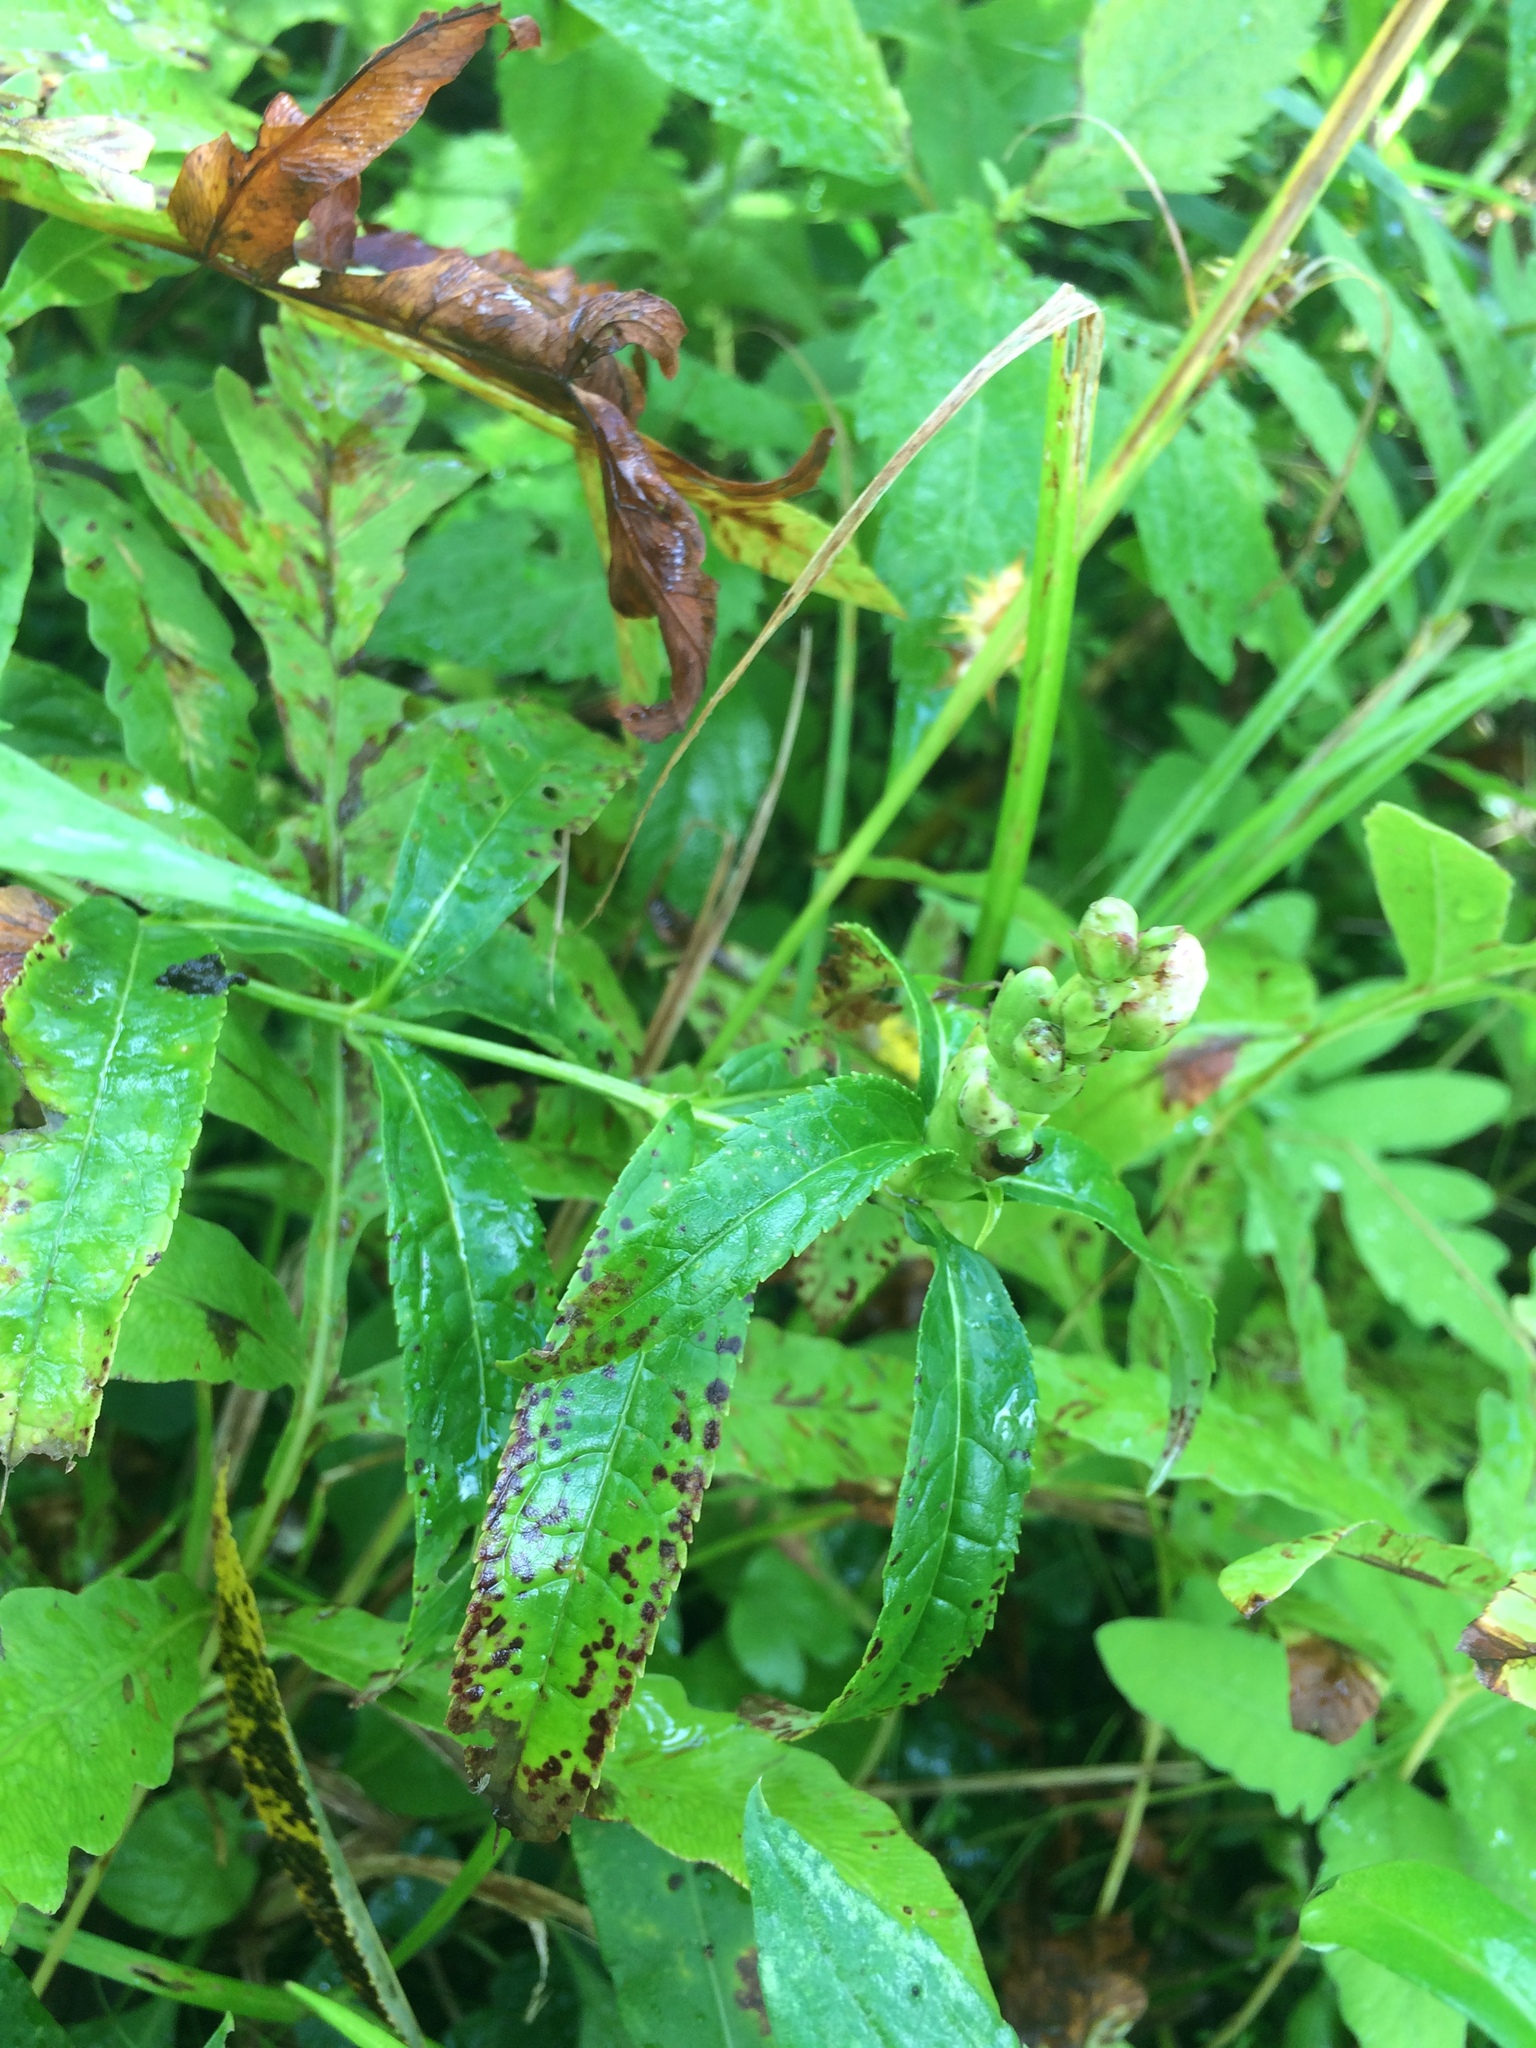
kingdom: Plantae
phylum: Tracheophyta
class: Magnoliopsida
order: Lamiales
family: Plantaginaceae
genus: Chelone
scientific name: Chelone glabra
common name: Snakehead
